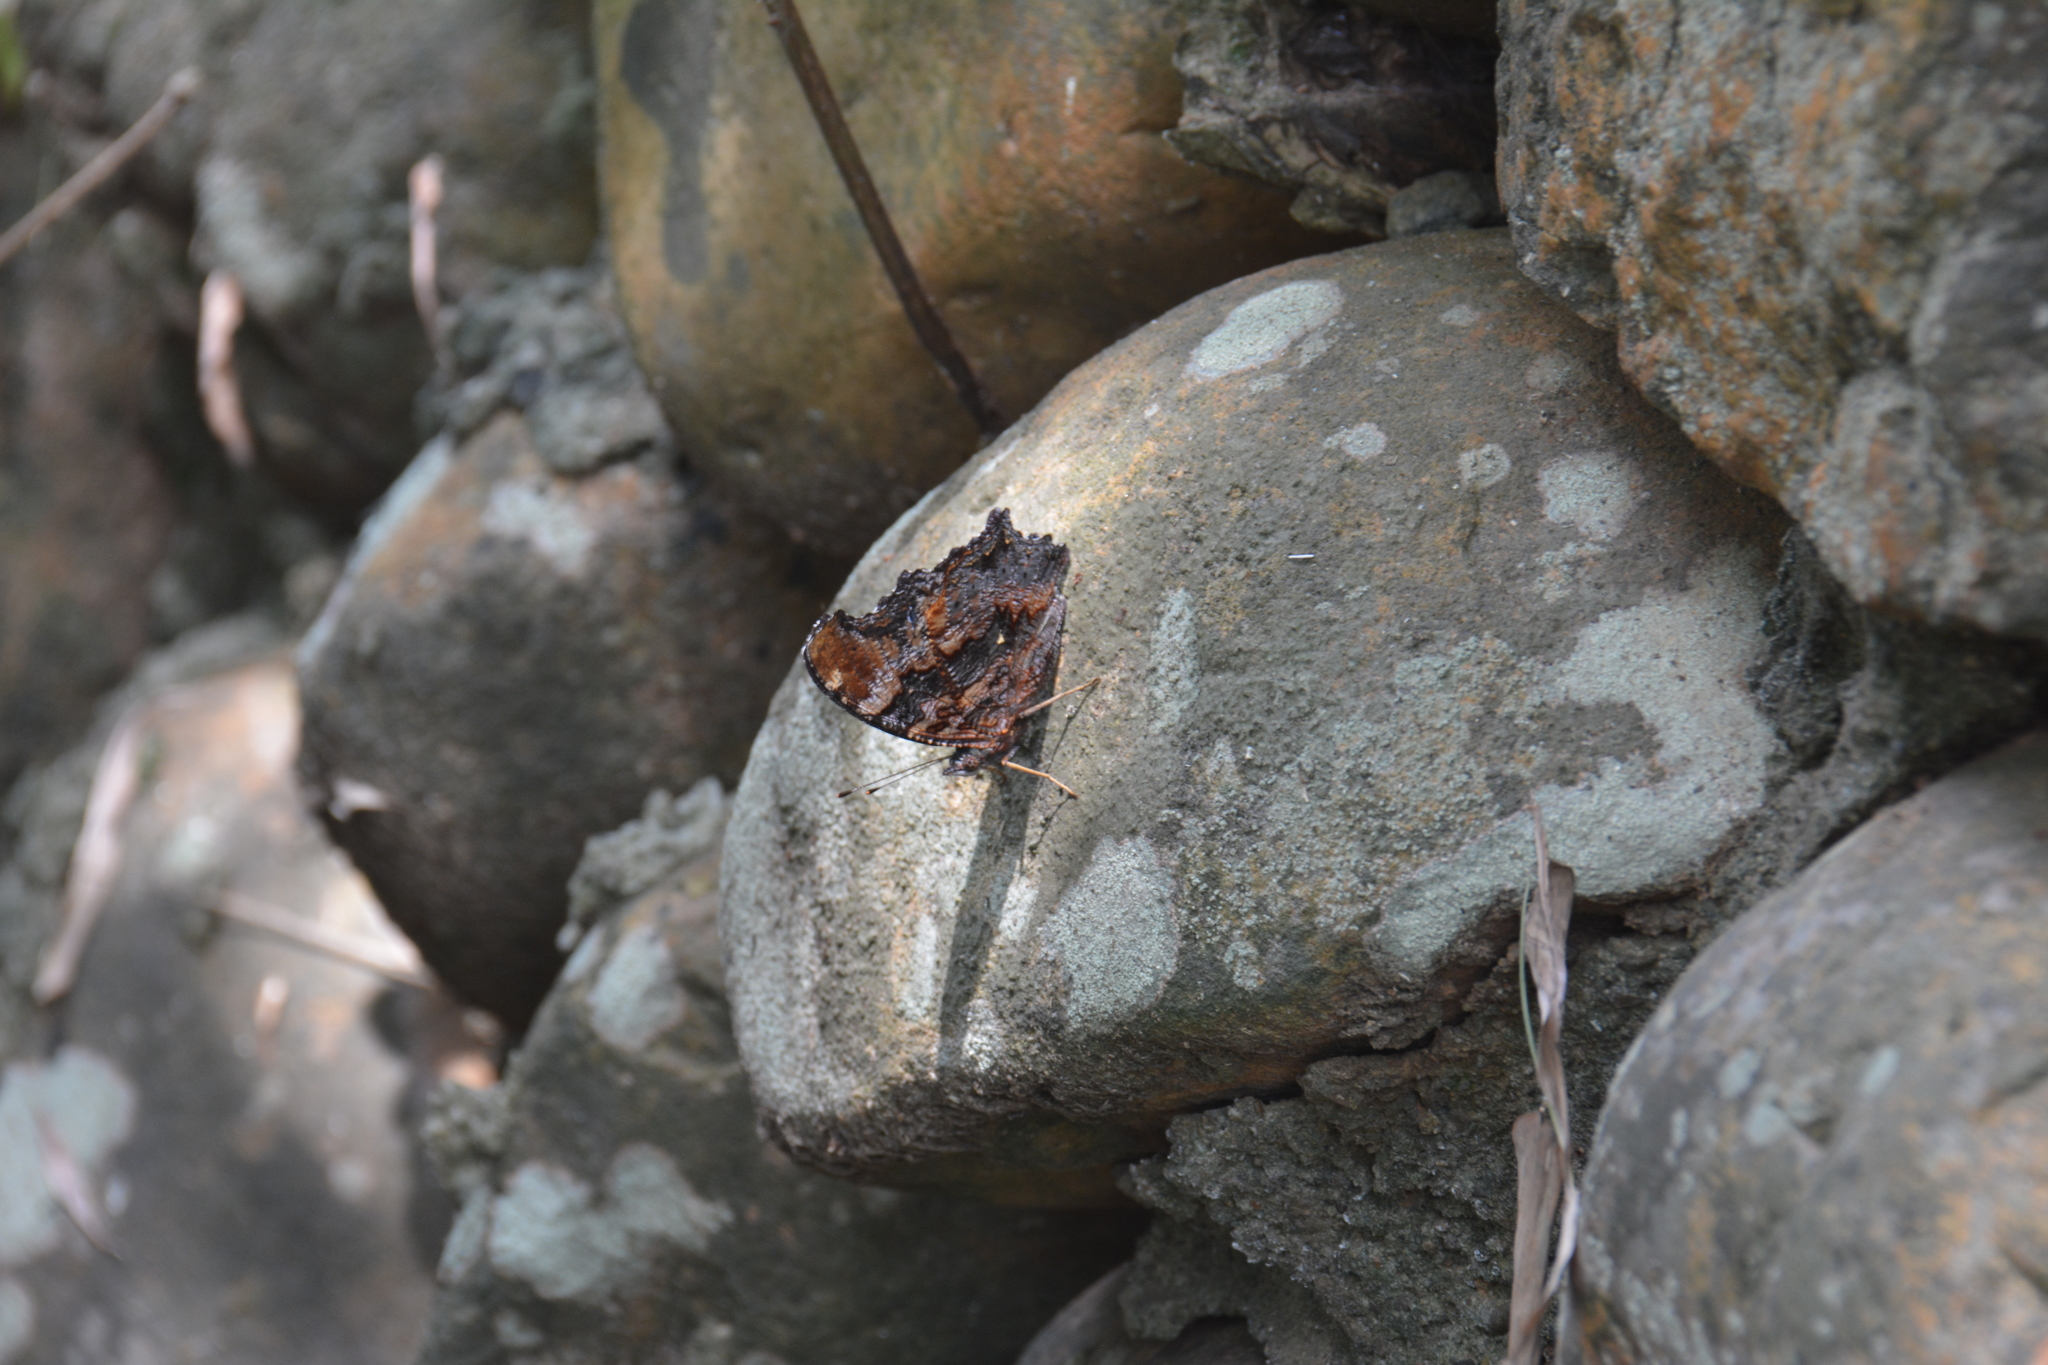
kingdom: Animalia
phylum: Arthropoda
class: Insecta
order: Lepidoptera
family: Nymphalidae
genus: Vanessa
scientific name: Vanessa Kaniska canace
